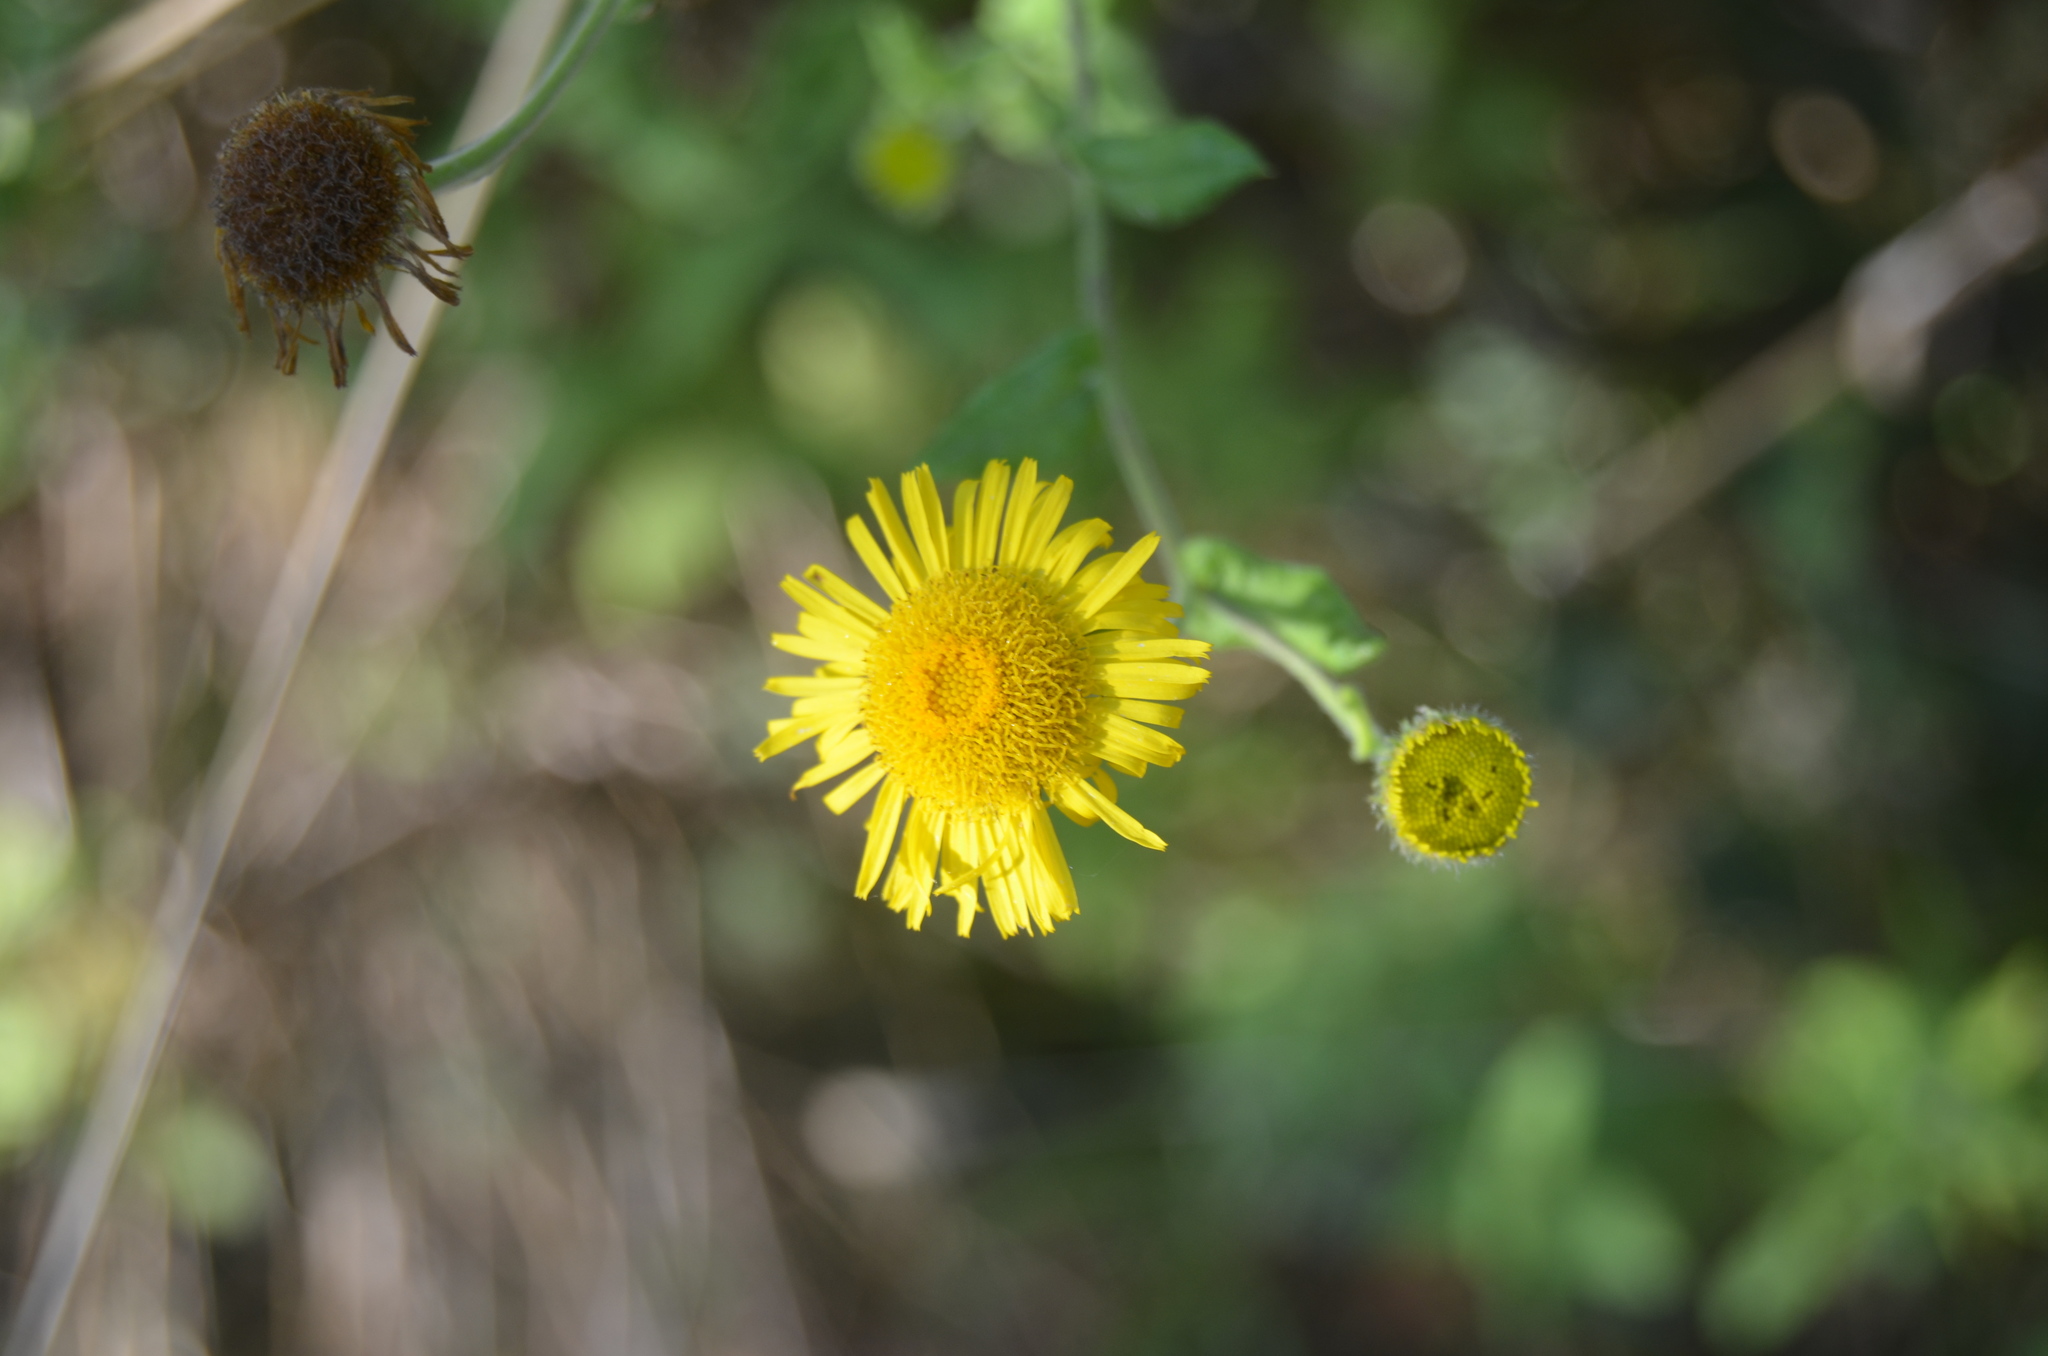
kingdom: Plantae
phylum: Tracheophyta
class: Magnoliopsida
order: Asterales
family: Asteraceae
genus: Pulicaria
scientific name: Pulicaria dysenterica
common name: Common fleabane
